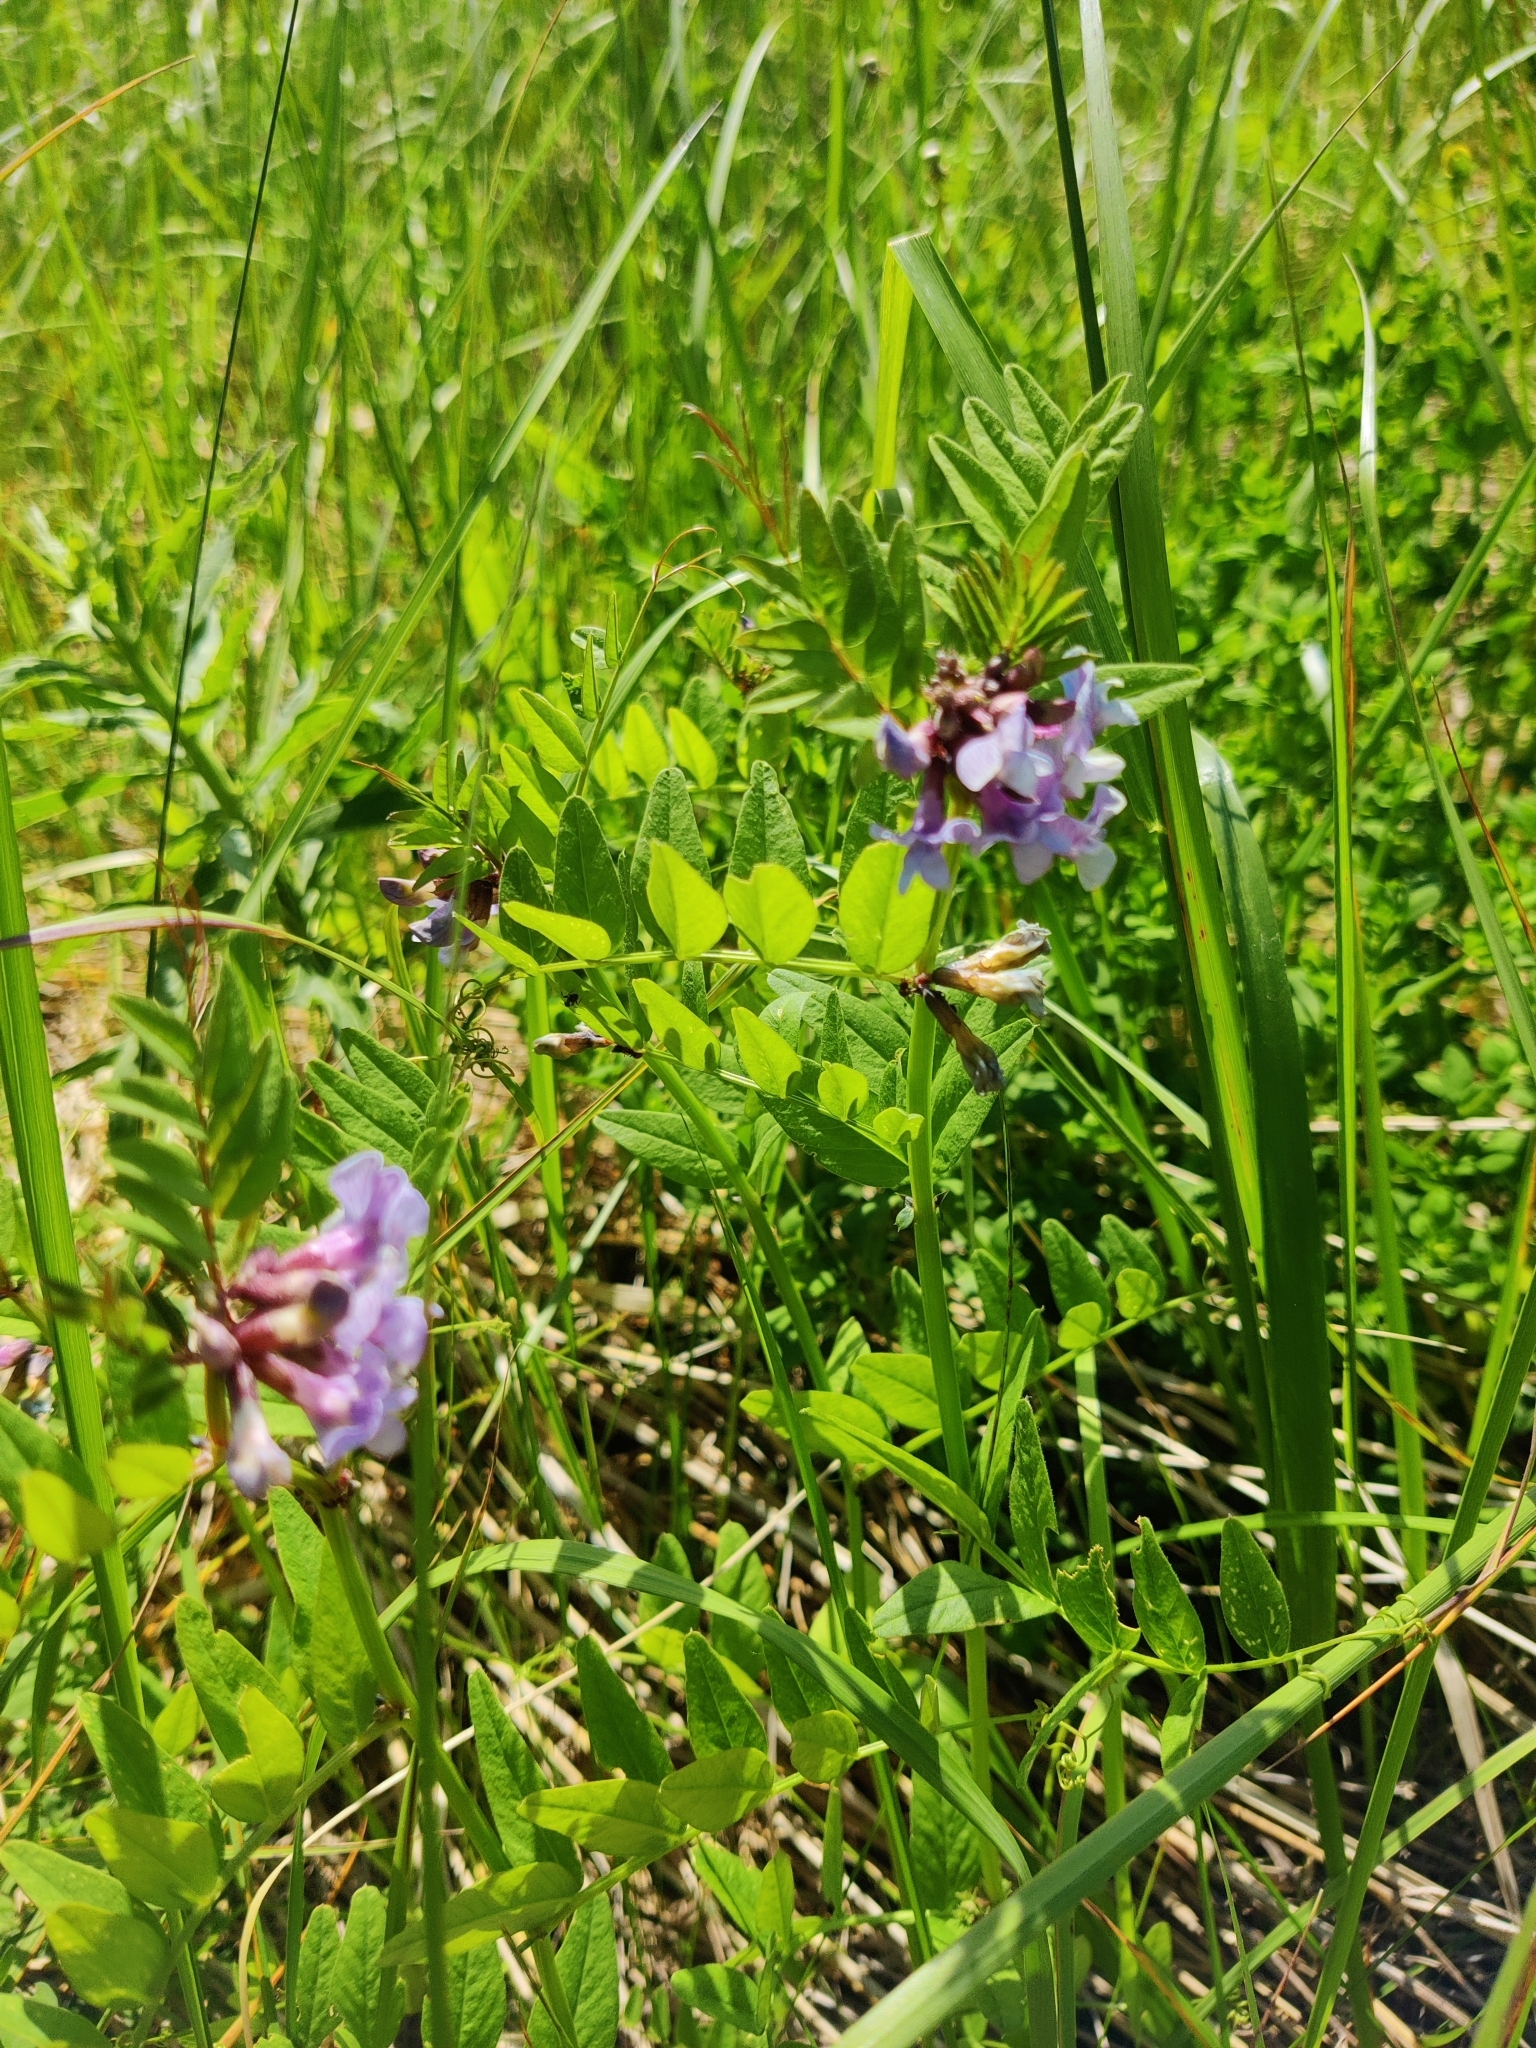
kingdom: Plantae
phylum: Tracheophyta
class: Magnoliopsida
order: Fabales
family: Fabaceae
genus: Vicia
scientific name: Vicia sepium
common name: Bush vetch
